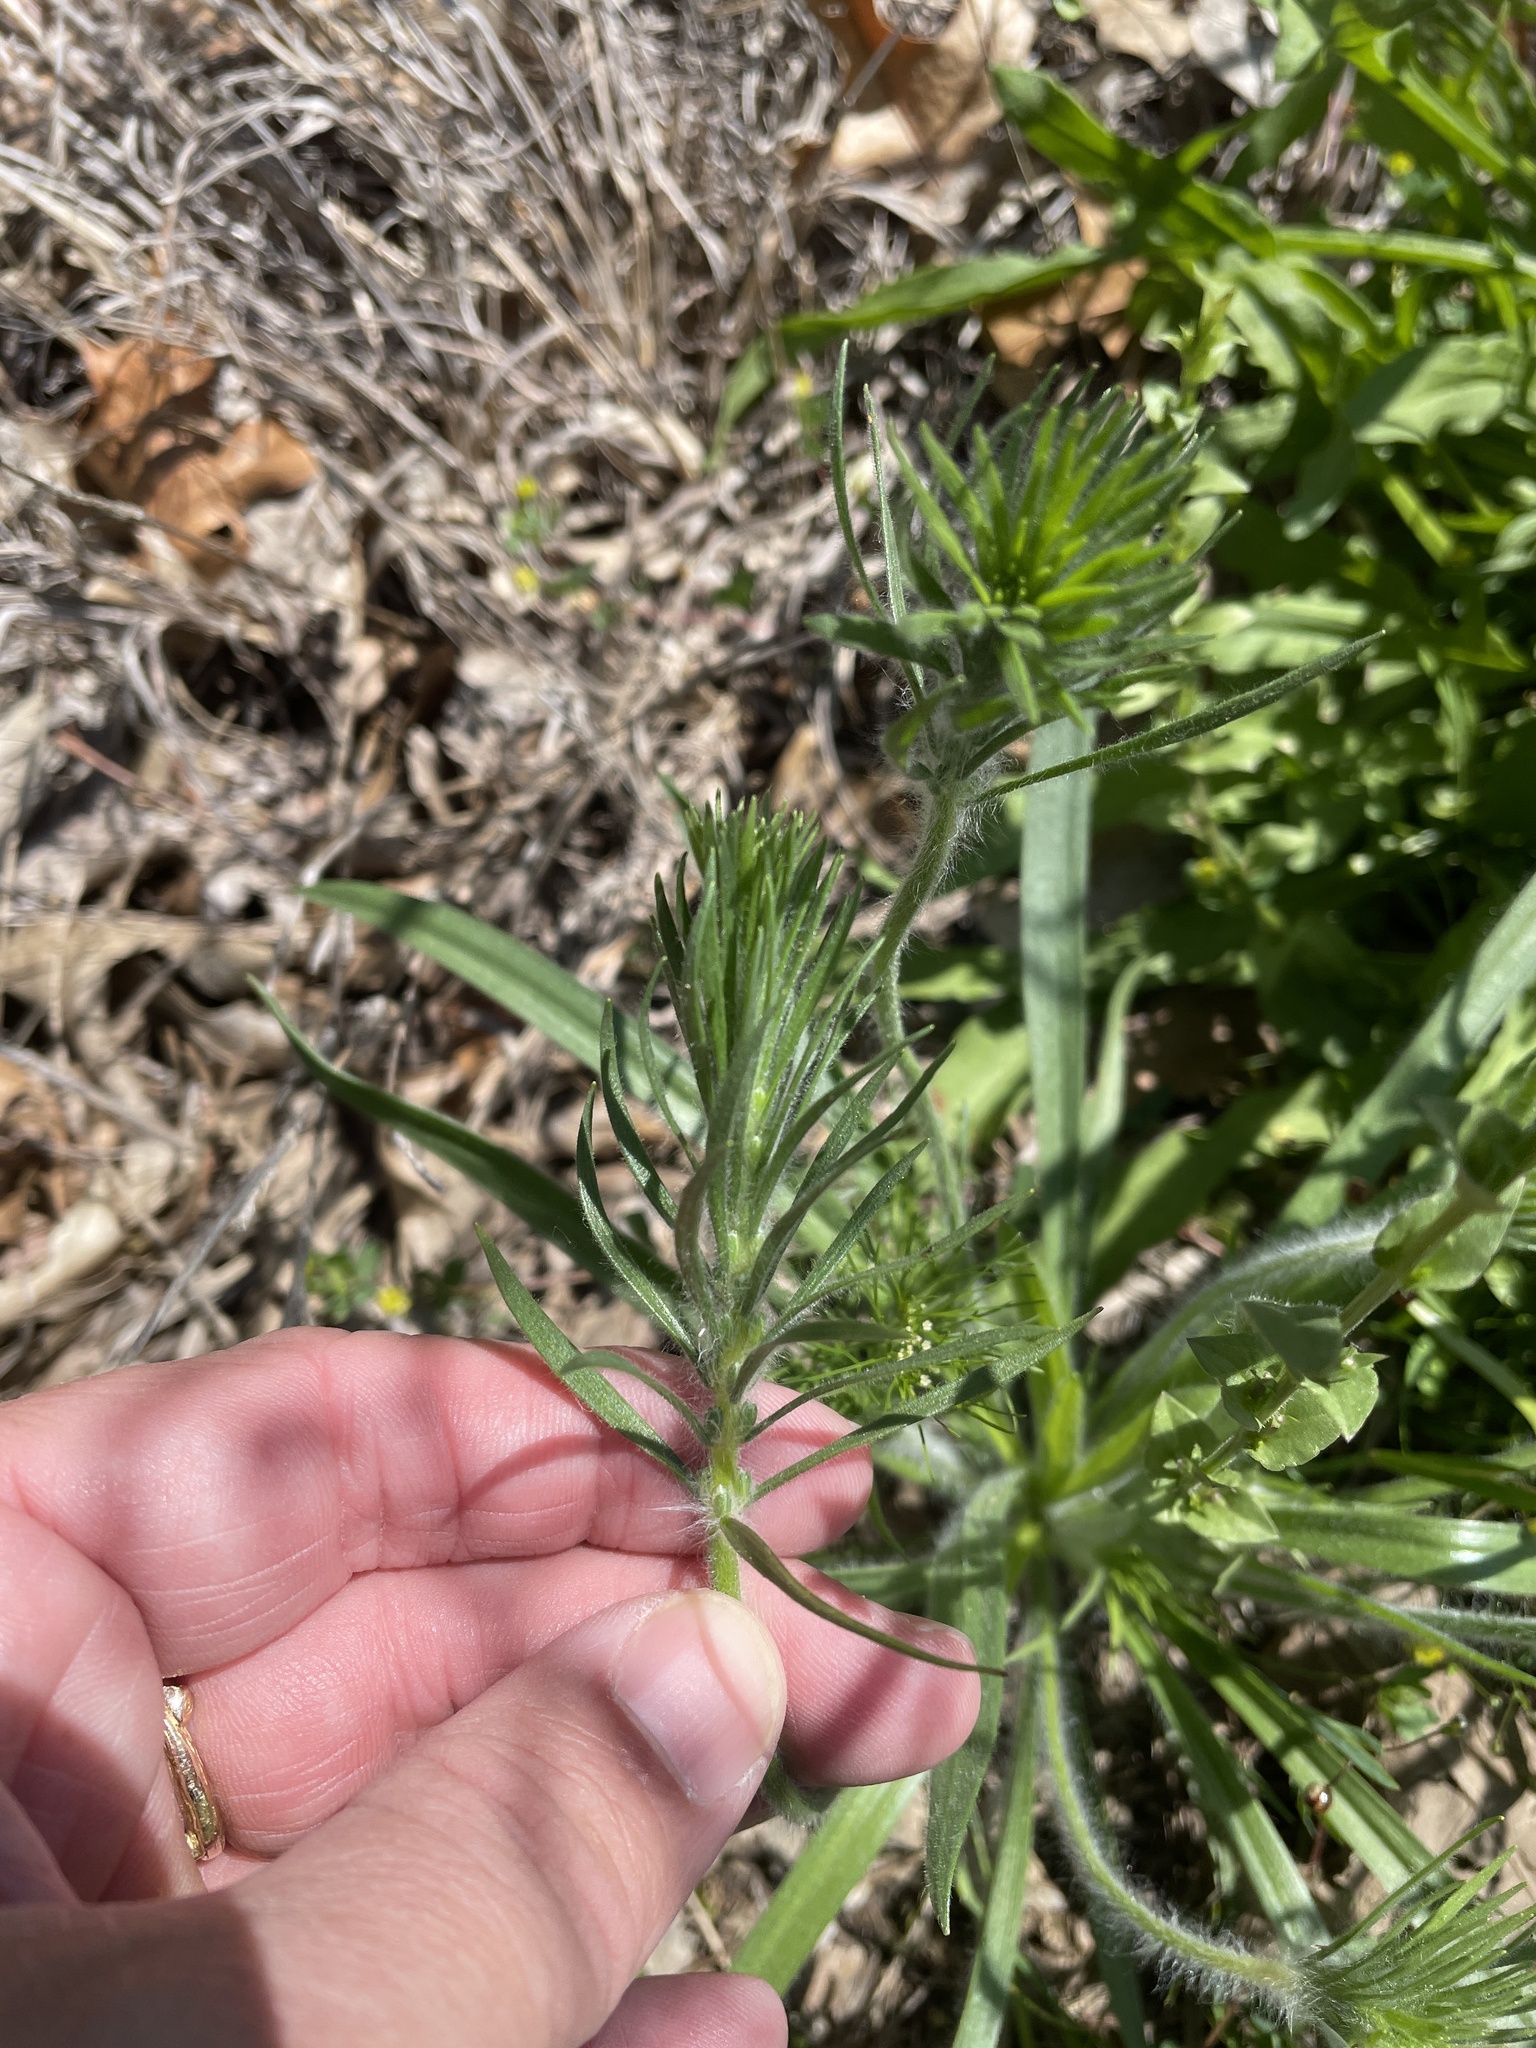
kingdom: Plantae
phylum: Tracheophyta
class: Magnoliopsida
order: Lamiales
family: Plantaginaceae
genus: Plantago
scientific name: Plantago aristata
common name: Bracted plantain
